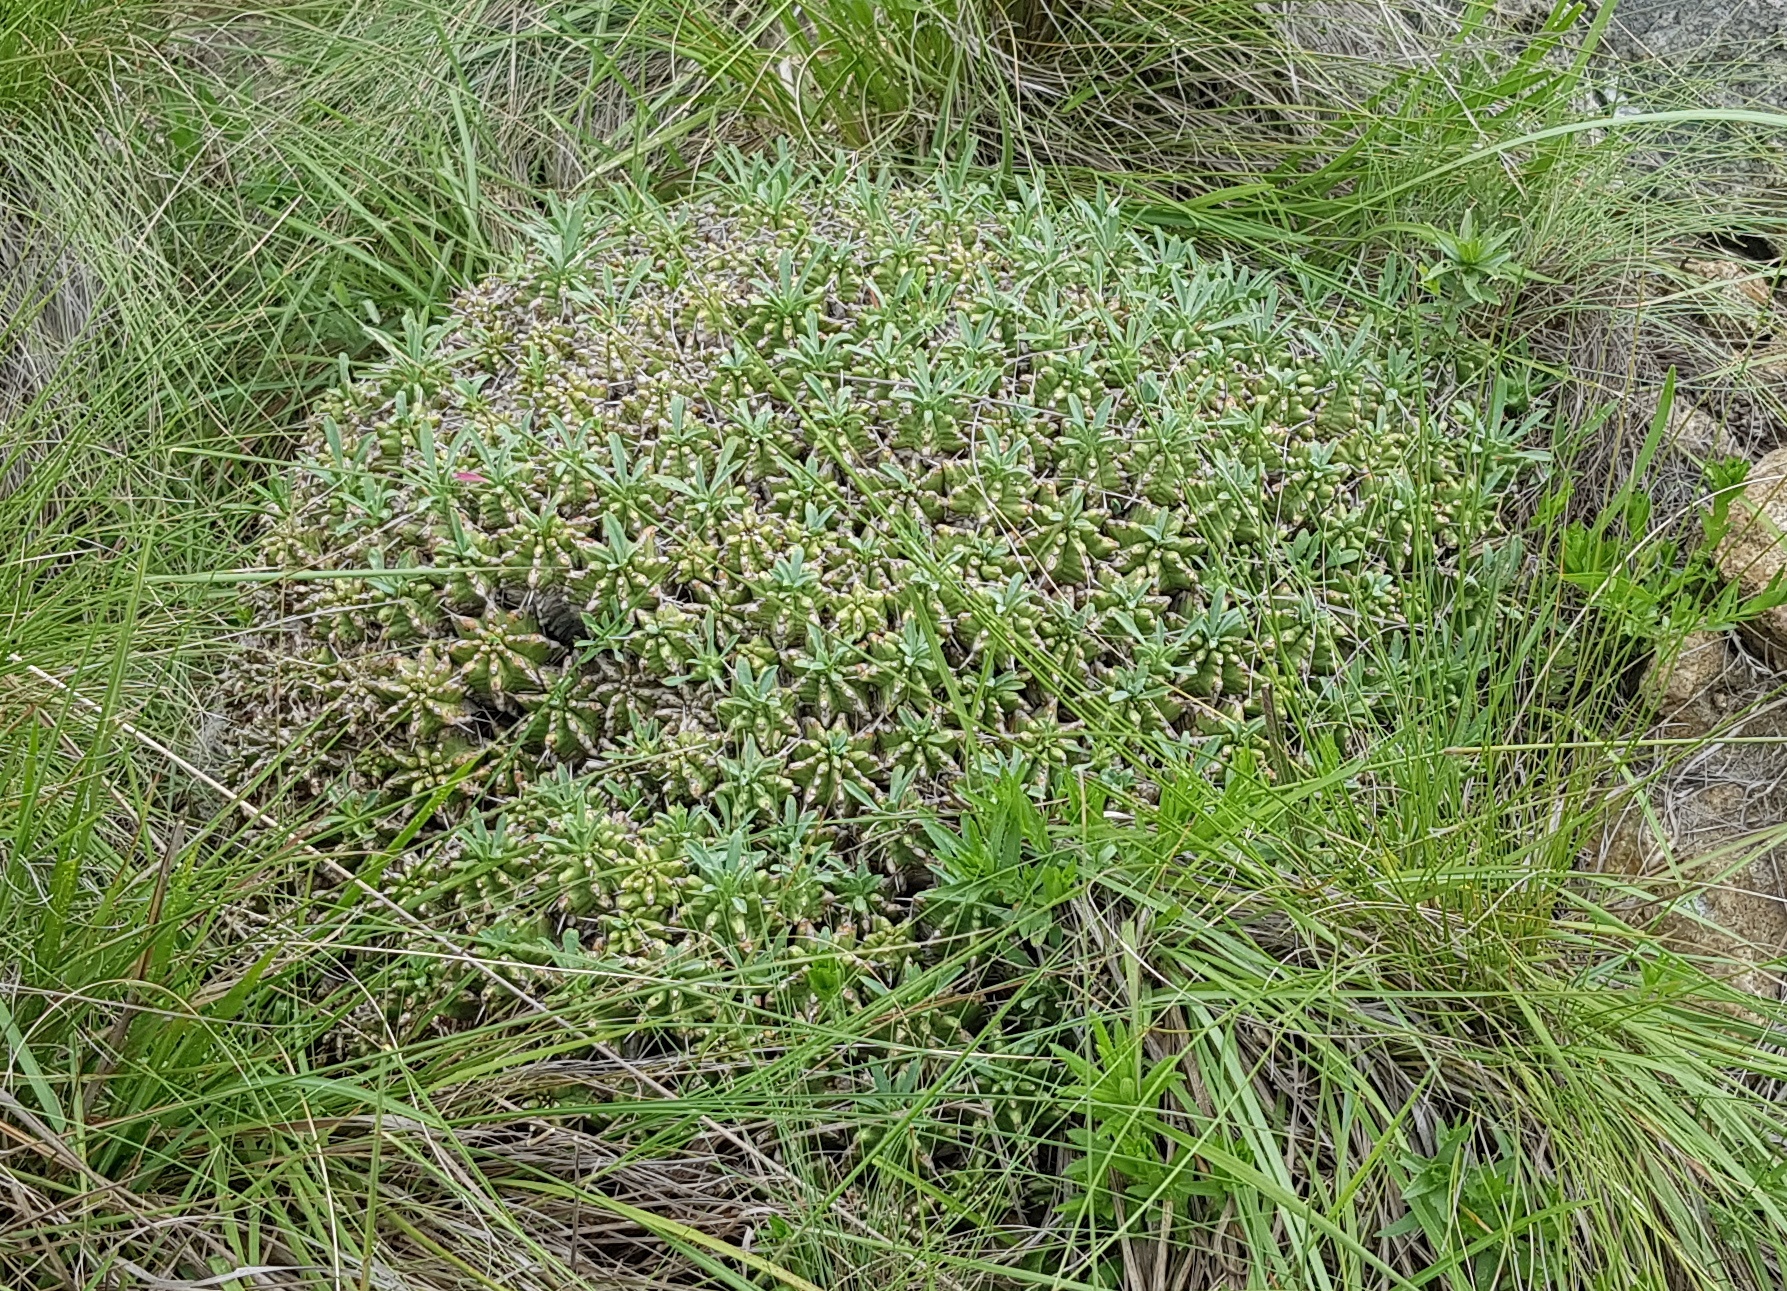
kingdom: Plantae
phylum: Tracheophyta
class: Magnoliopsida
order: Malpighiales
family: Euphorbiaceae
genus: Euphorbia
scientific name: Euphorbia pulvinata
